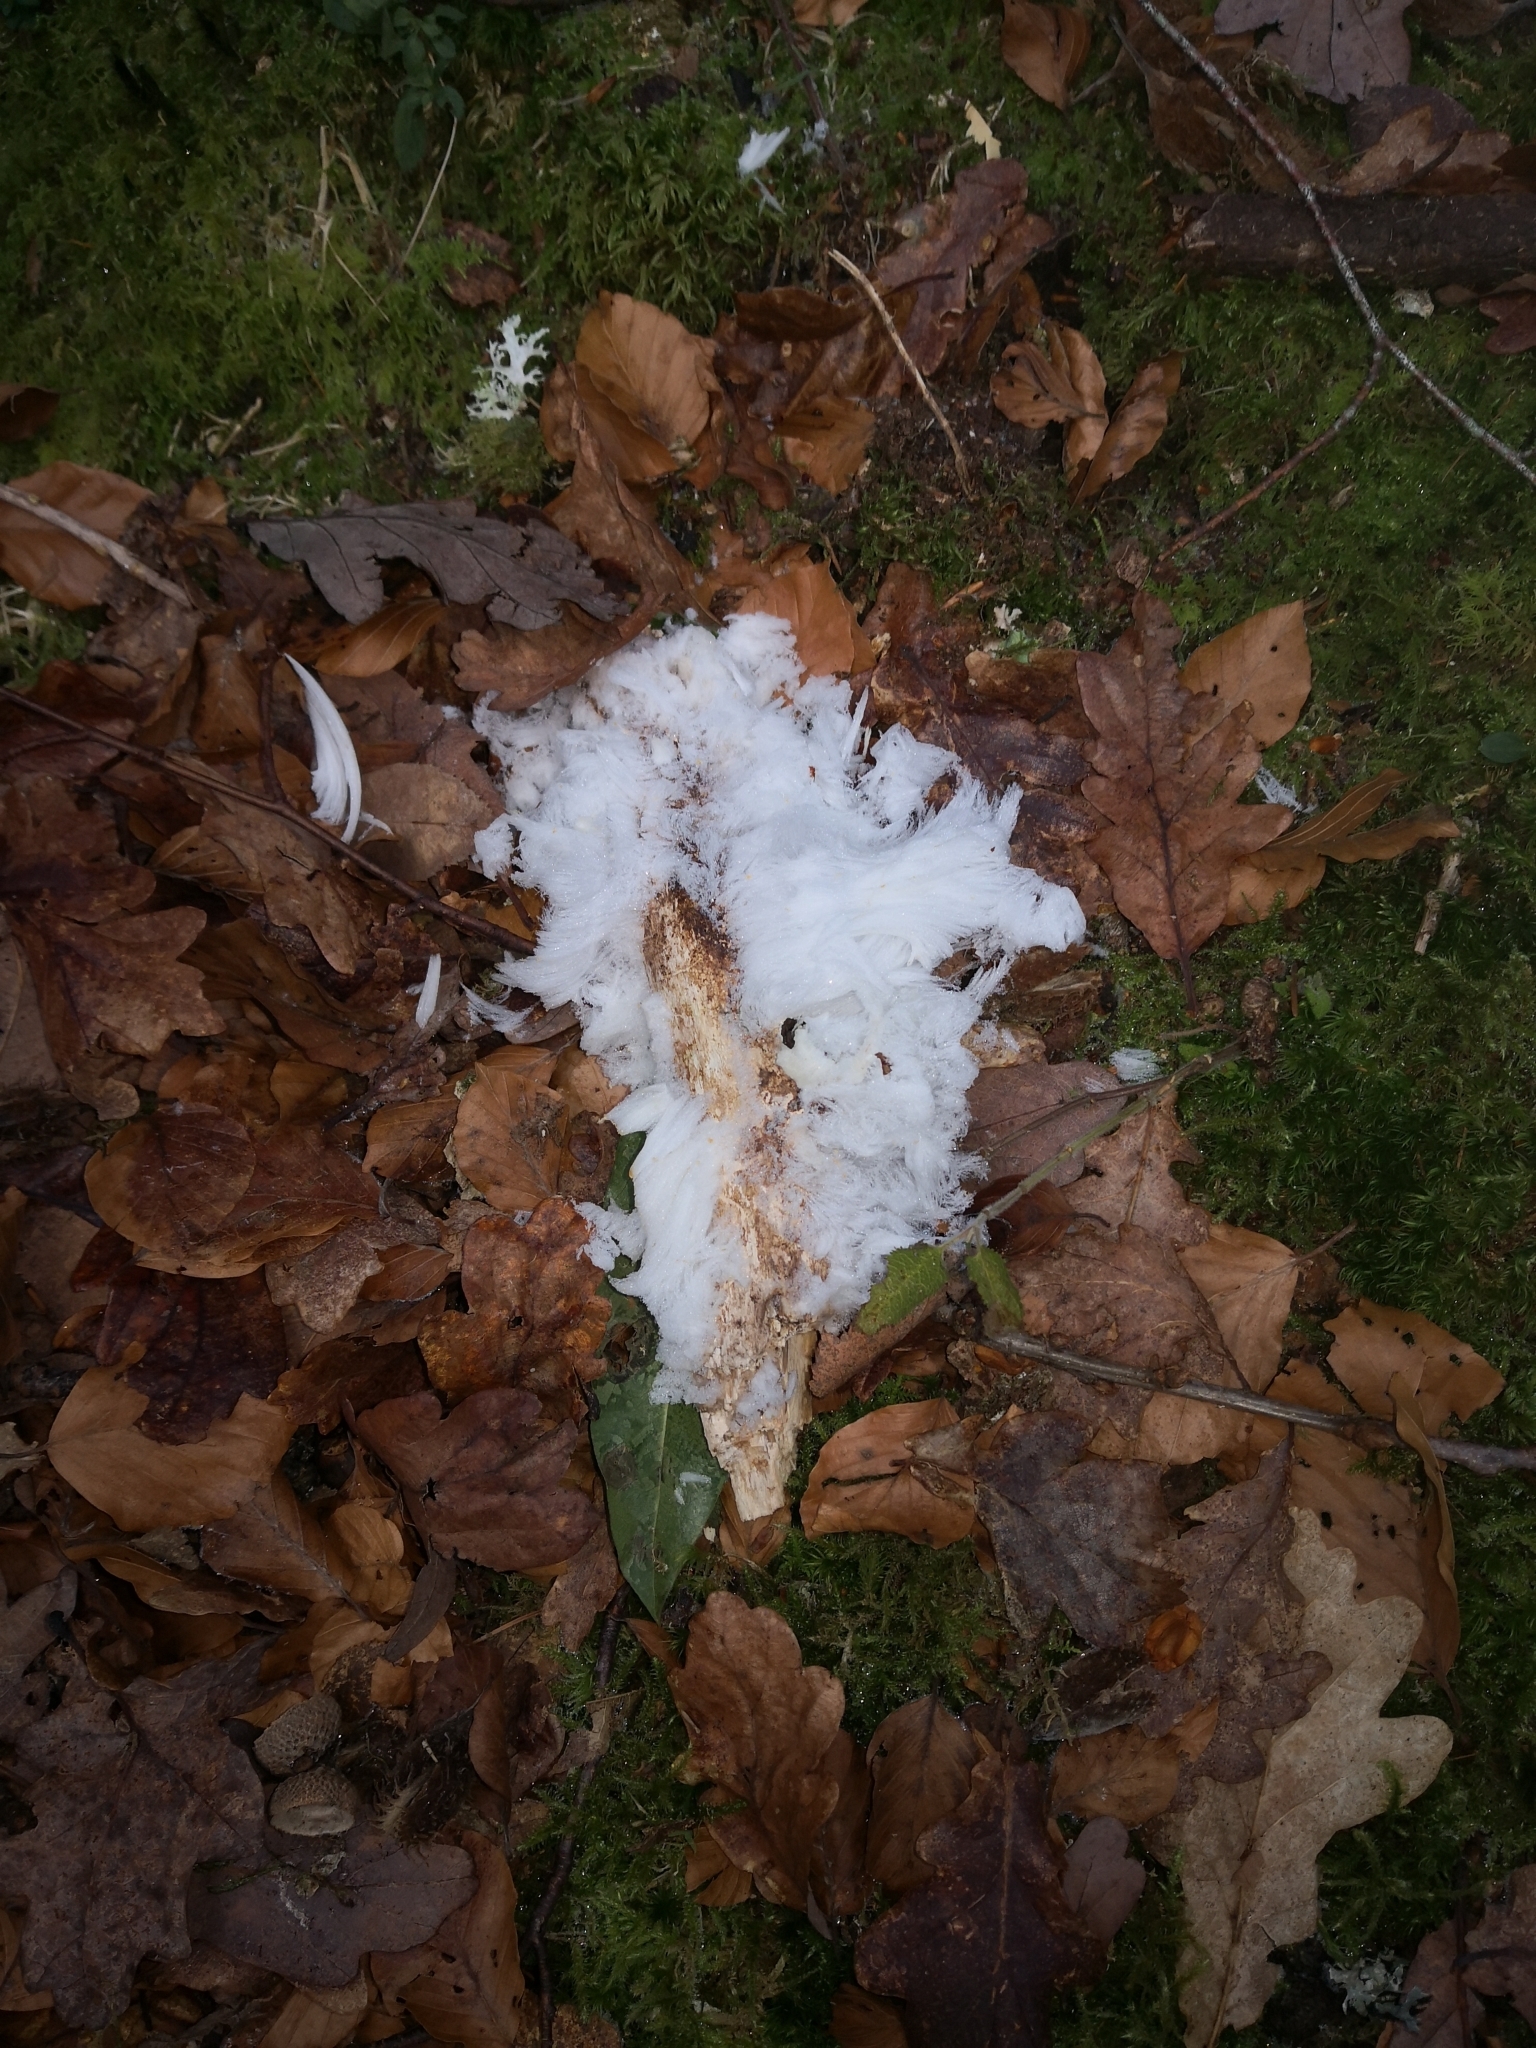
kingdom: Fungi
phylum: Basidiomycota
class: Agaricomycetes
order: Auriculariales
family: Auriculariaceae
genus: Exidiopsis
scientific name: Exidiopsis effusa
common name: Hair ice crust
